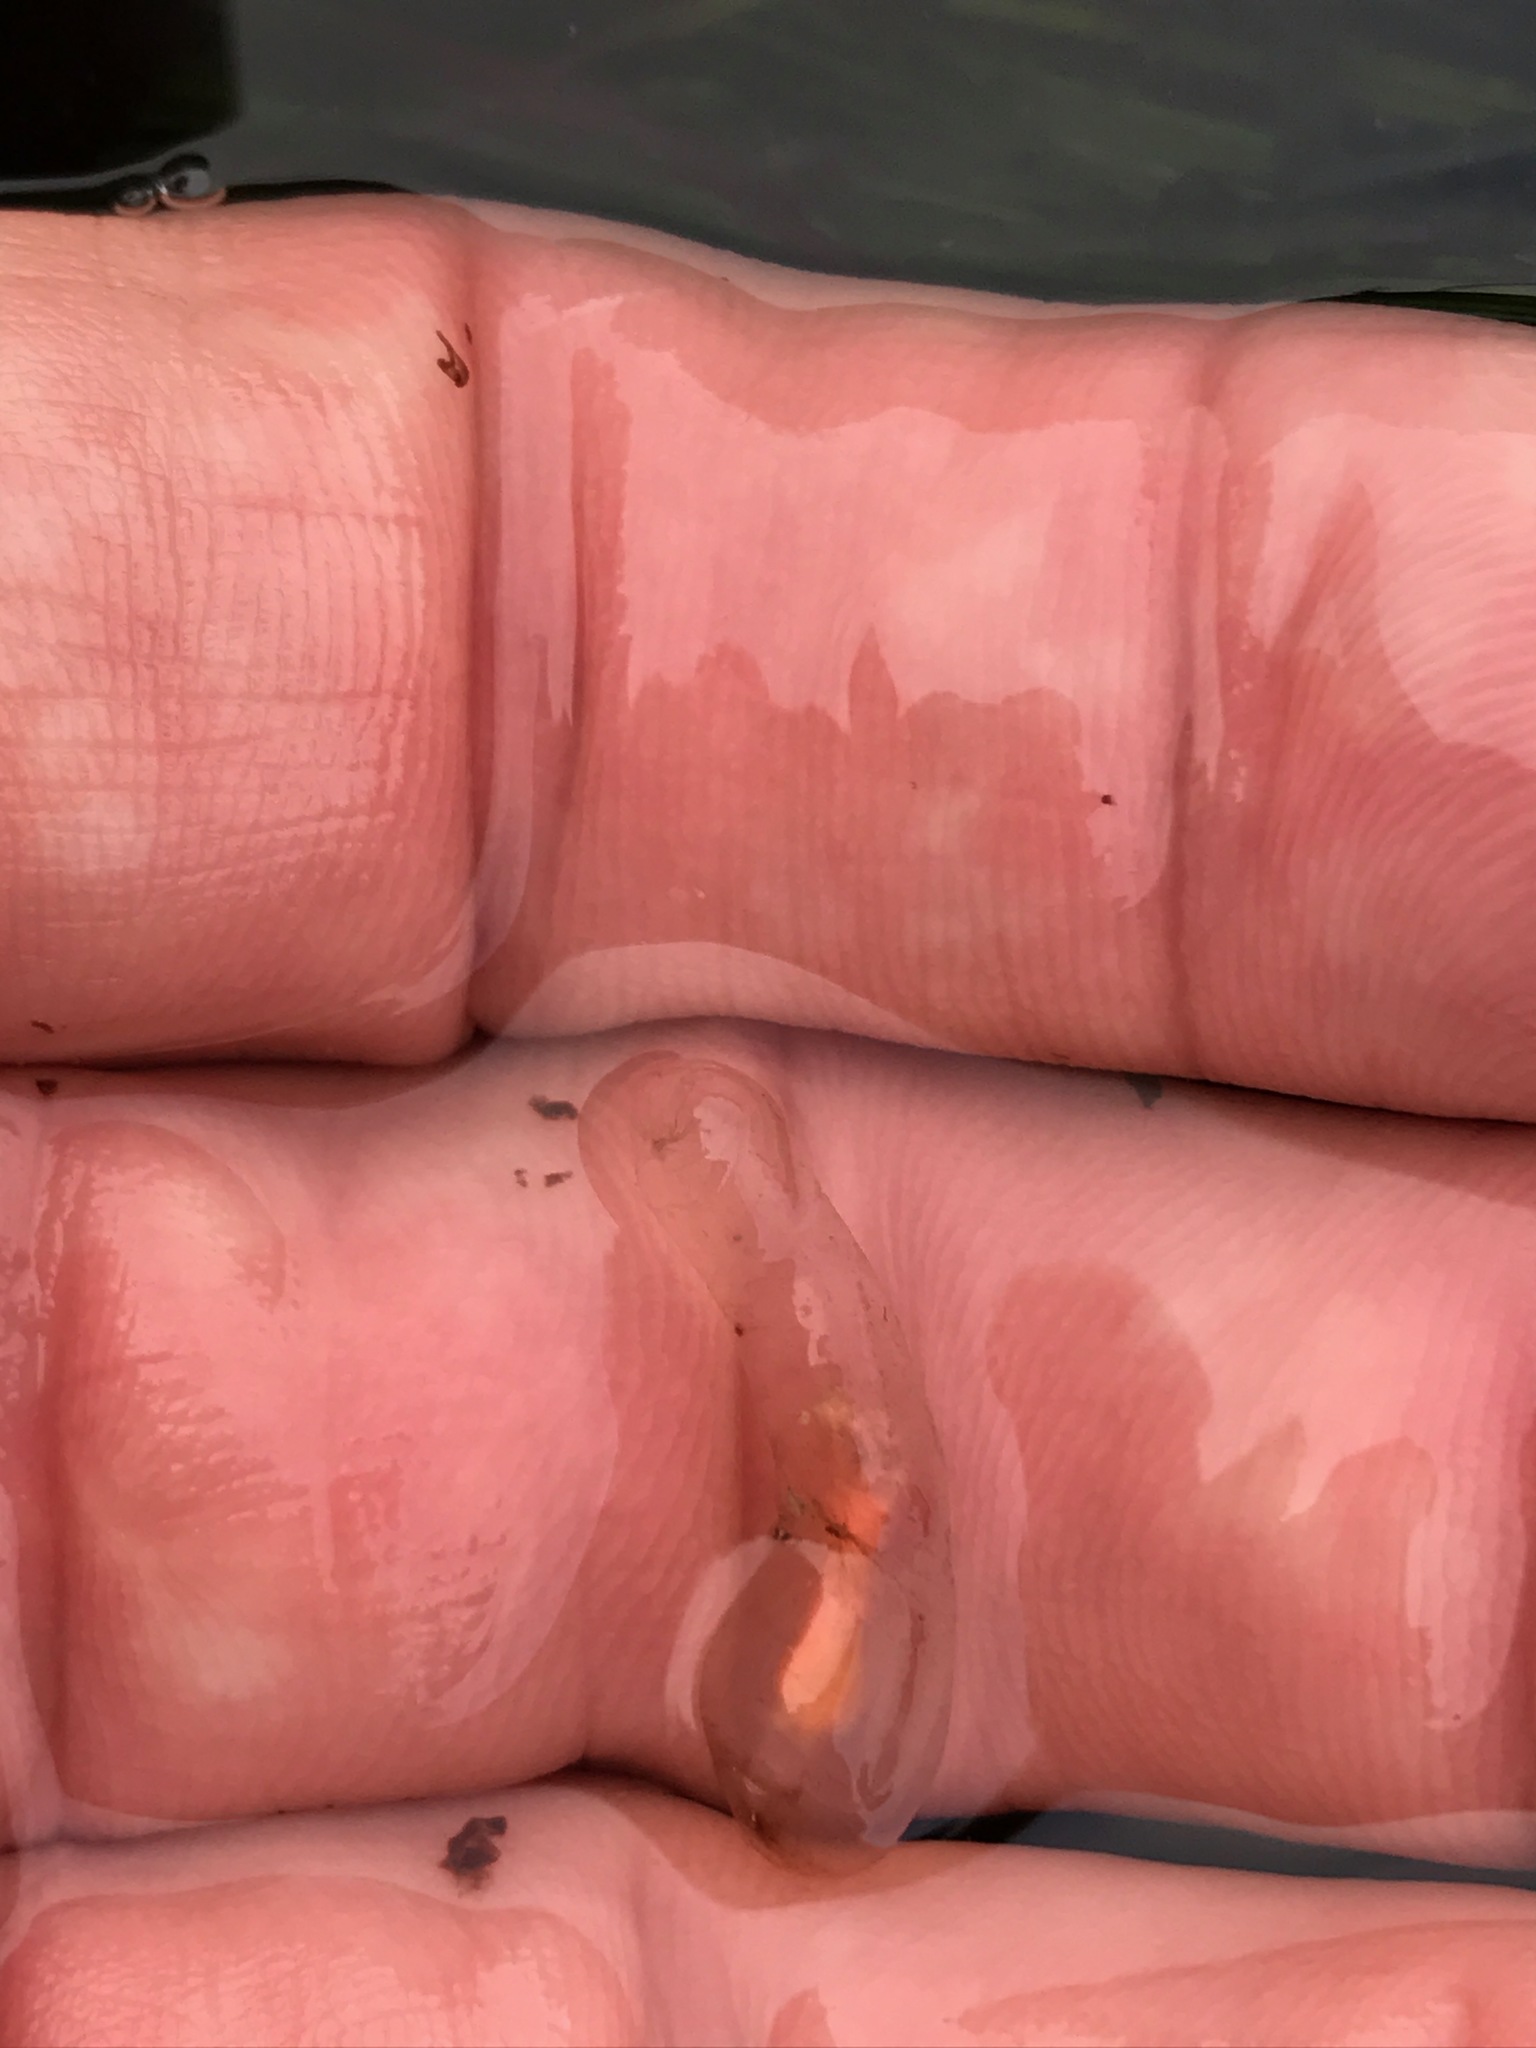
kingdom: Animalia
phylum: Chordata
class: Ascidiacea
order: Aplousobranchia
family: Clavelinidae
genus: Clavelina
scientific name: Clavelina huntsmani
